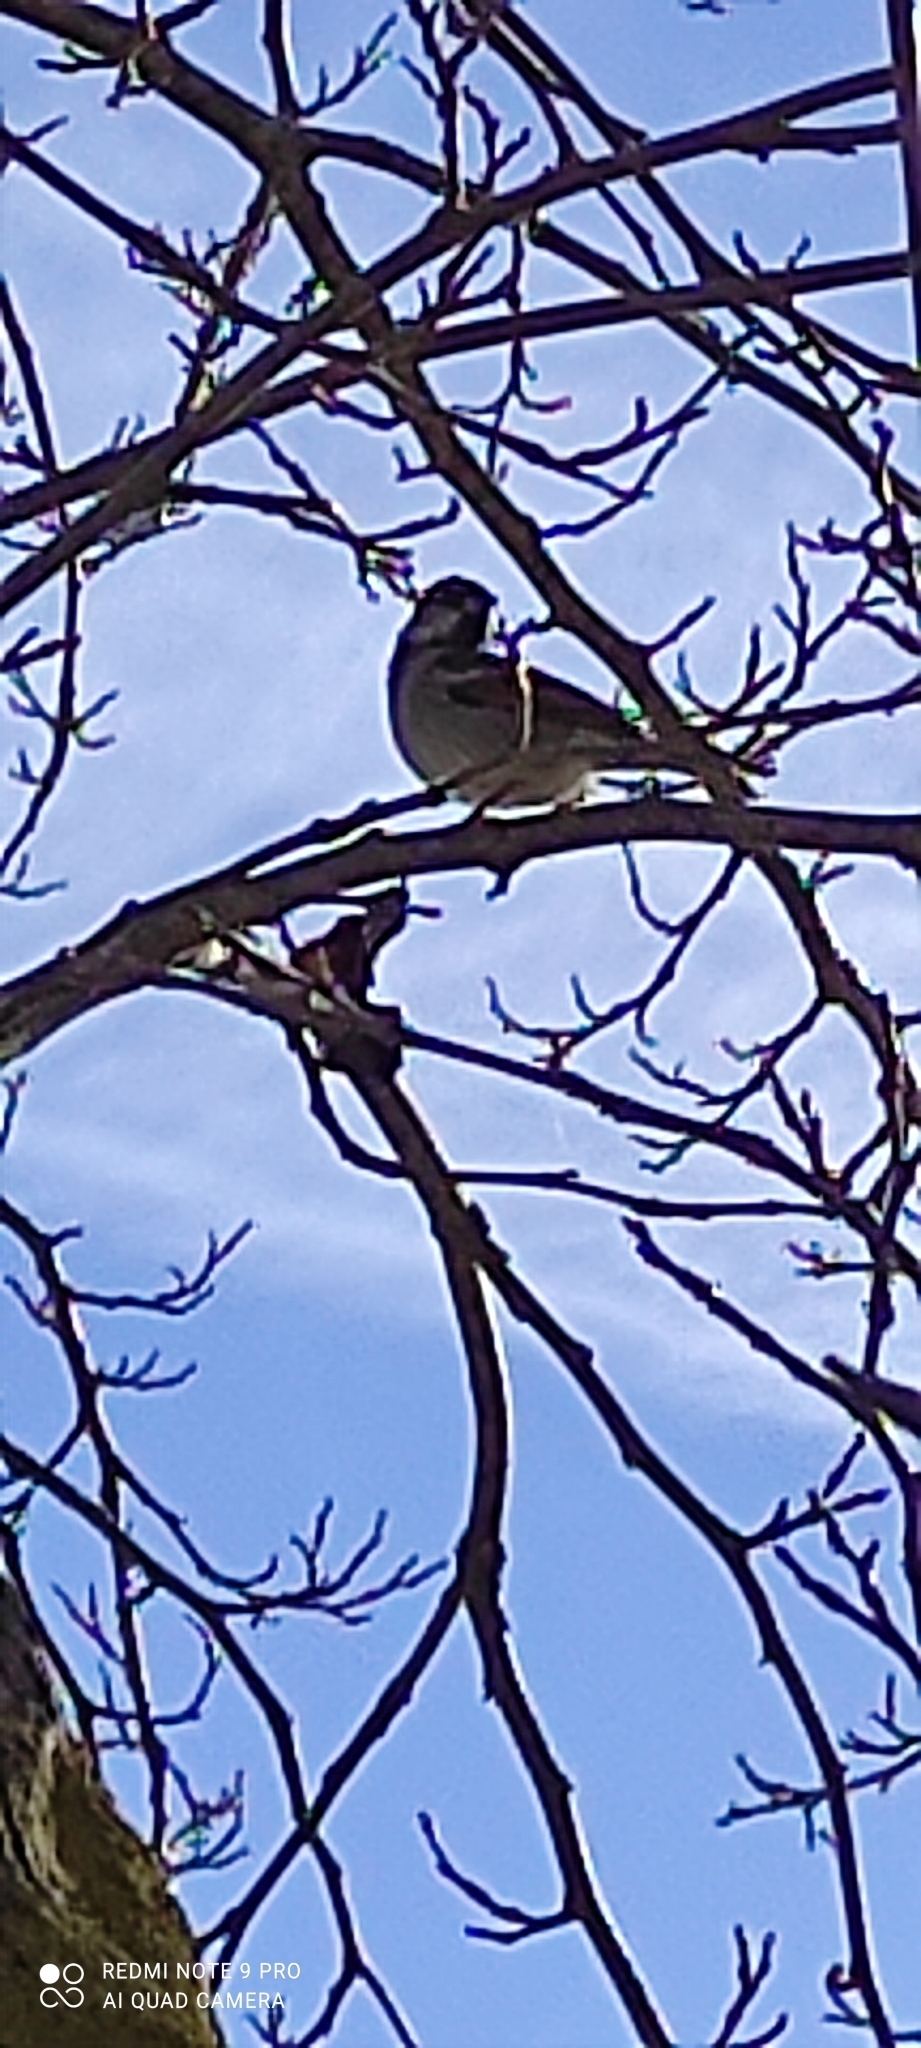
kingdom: Animalia
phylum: Chordata
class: Aves
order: Passeriformes
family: Passeridae
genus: Passer
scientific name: Passer domesticus
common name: House sparrow
